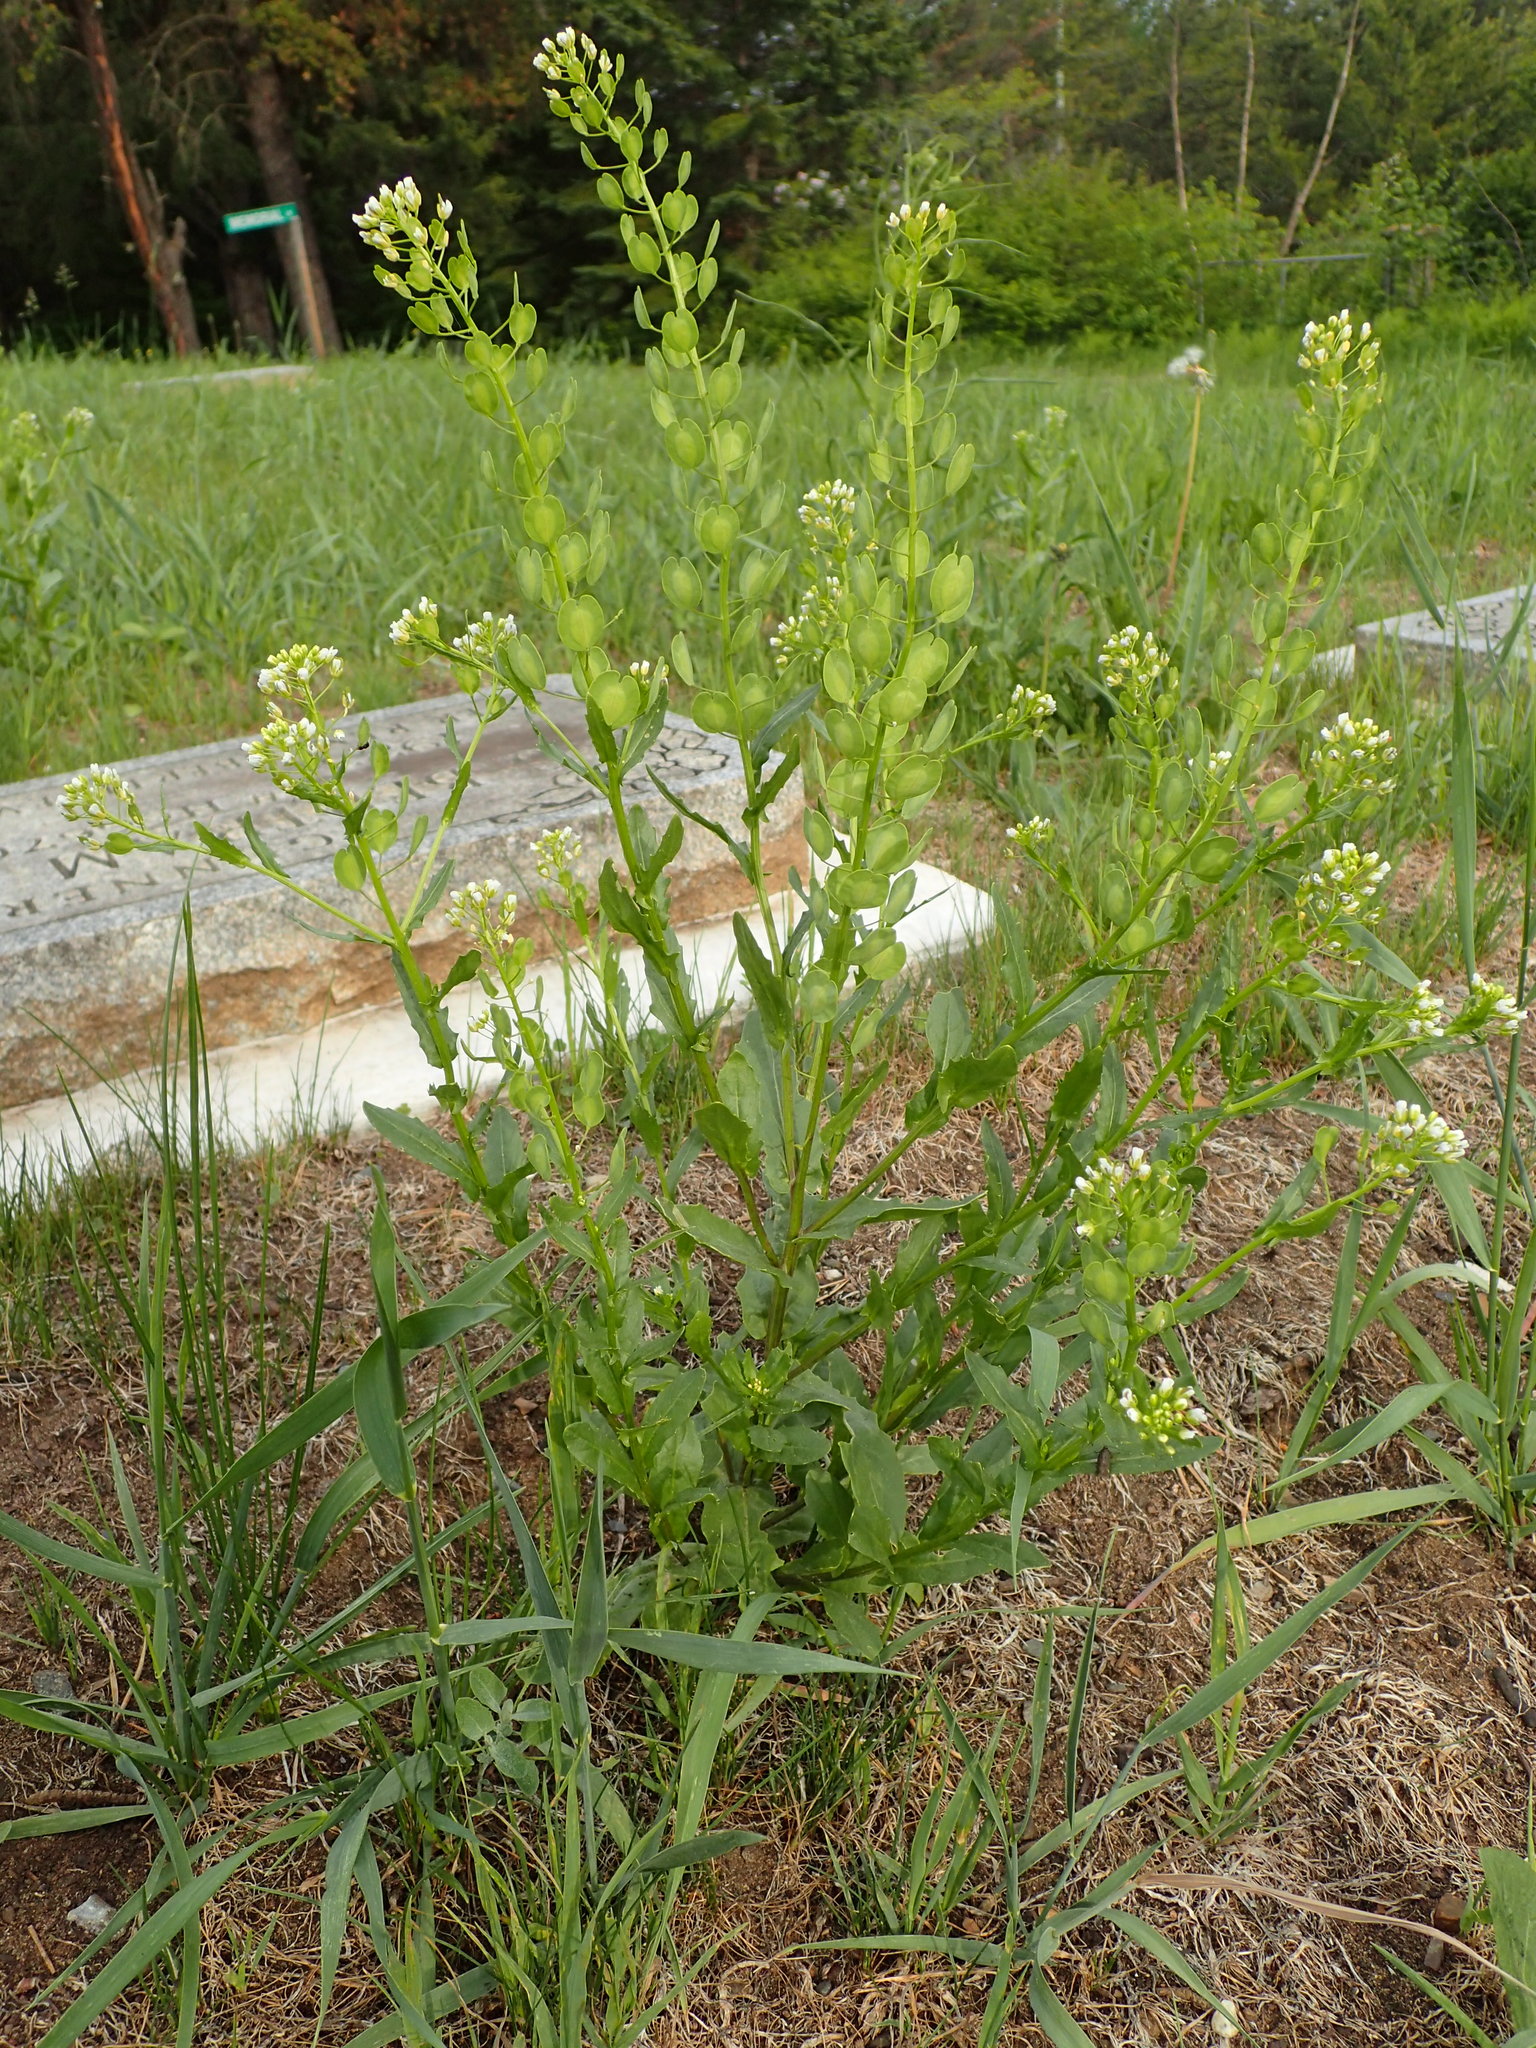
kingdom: Plantae
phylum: Tracheophyta
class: Magnoliopsida
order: Brassicales
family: Brassicaceae
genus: Thlaspi
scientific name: Thlaspi arvense
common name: Field pennycress
